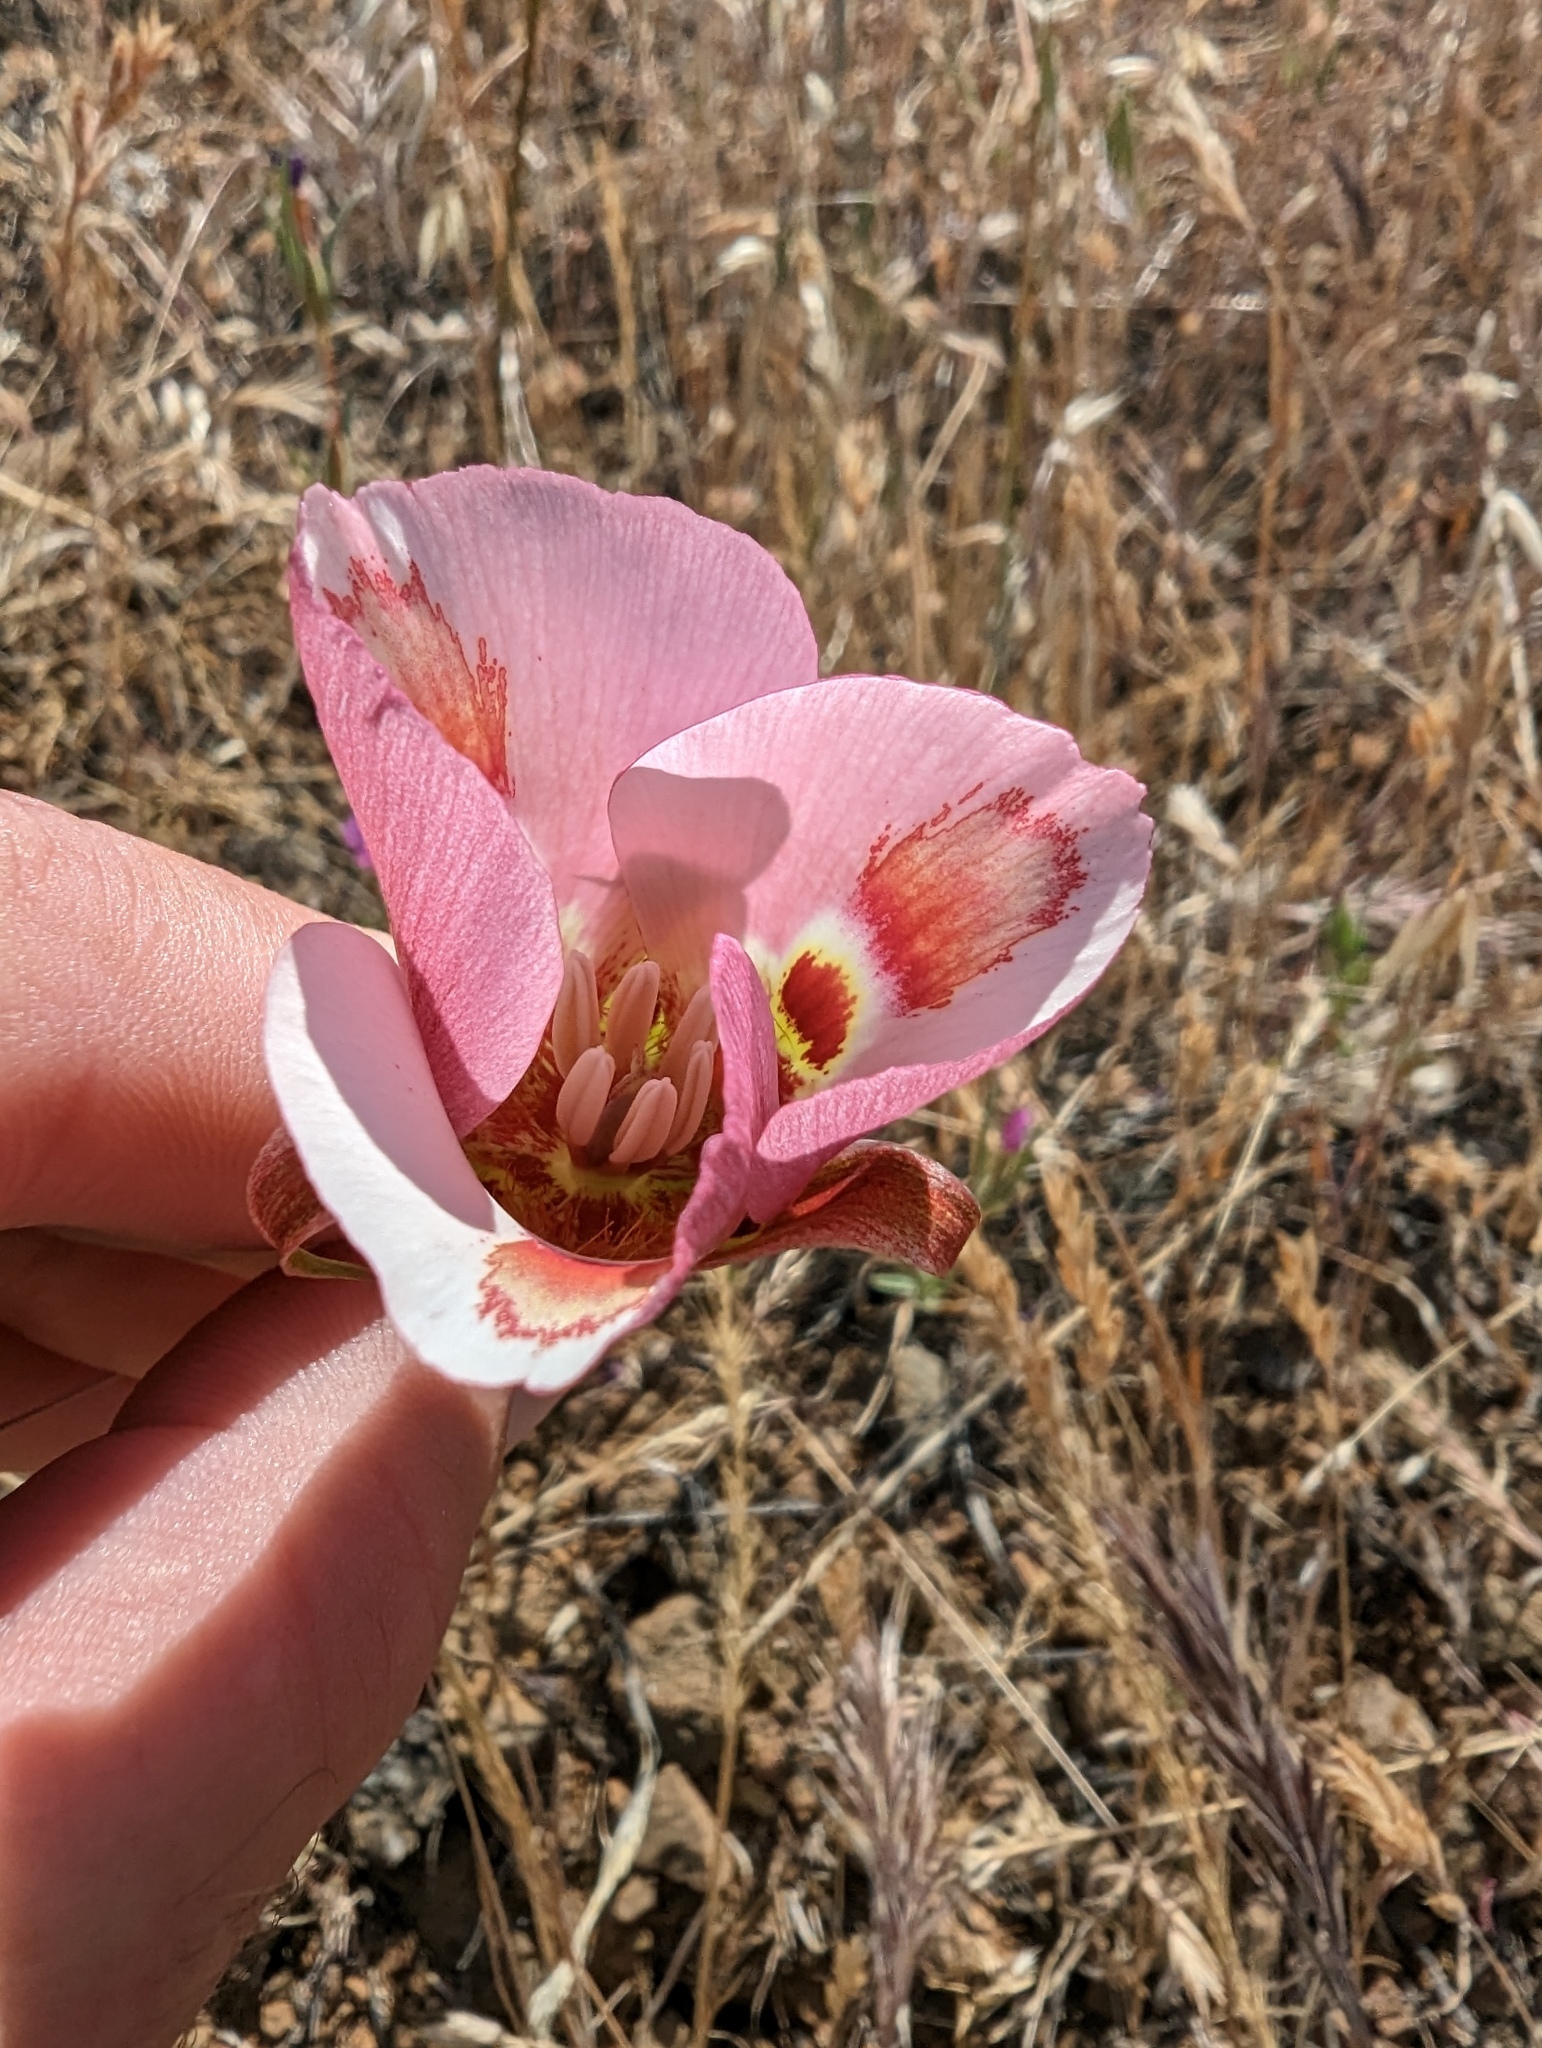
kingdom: Plantae
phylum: Tracheophyta
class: Liliopsida
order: Liliales
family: Liliaceae
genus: Calochortus
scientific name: Calochortus venustus
